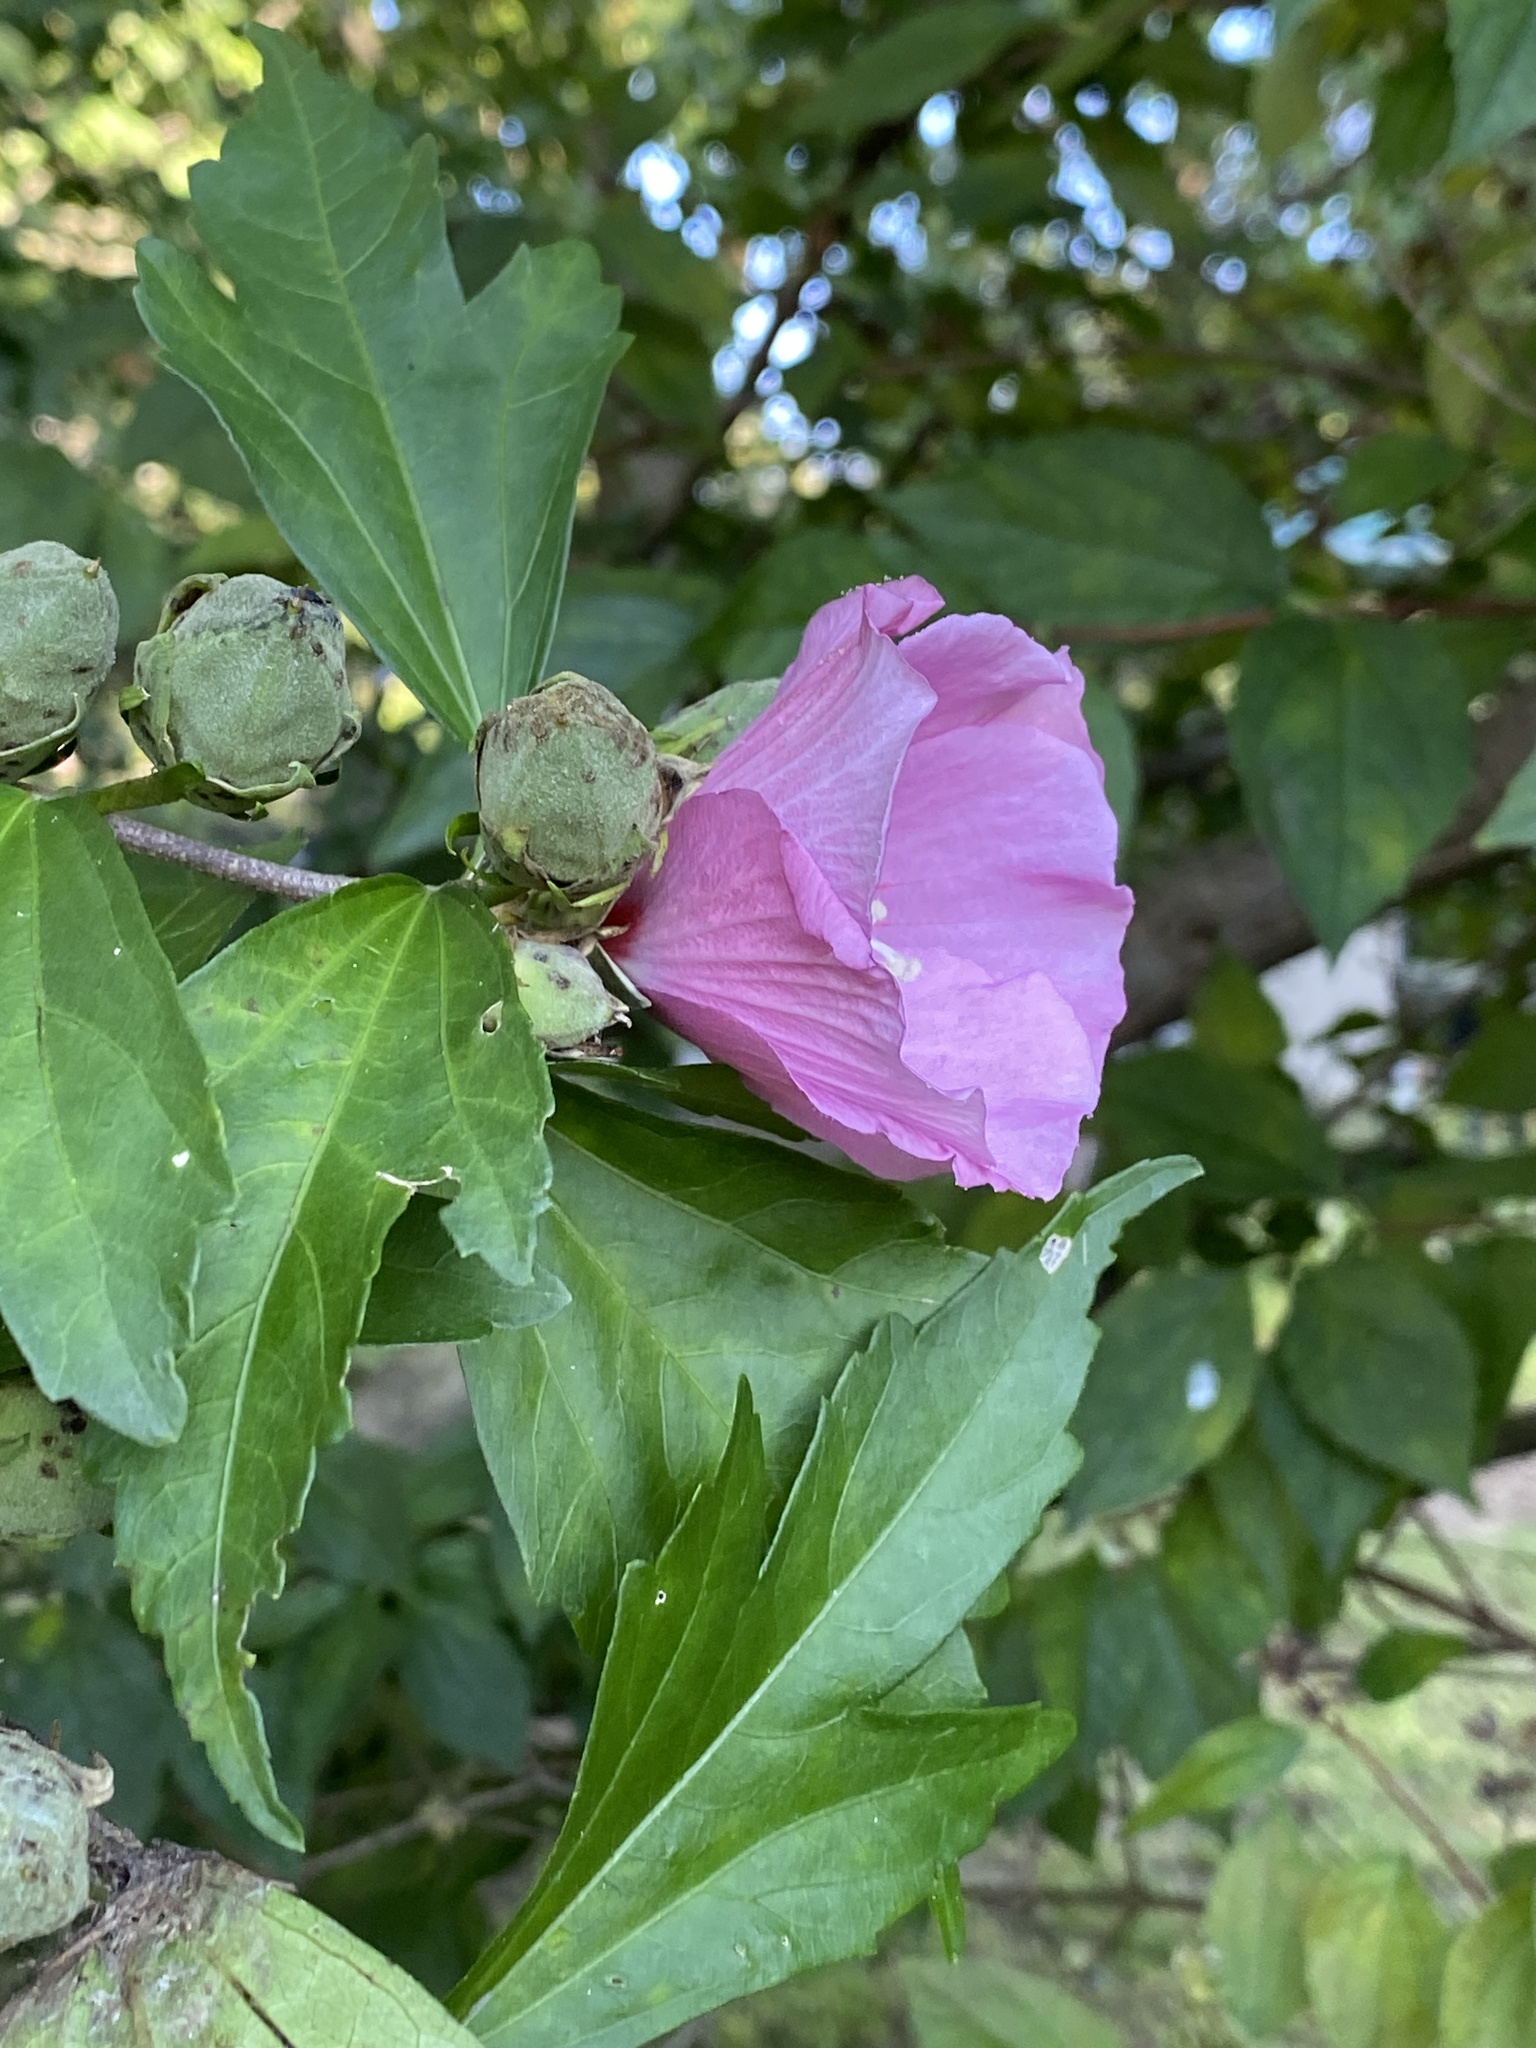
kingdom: Plantae
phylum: Tracheophyta
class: Magnoliopsida
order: Malvales
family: Malvaceae
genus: Hibiscus
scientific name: Hibiscus syriacus
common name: Syrian ketmia
